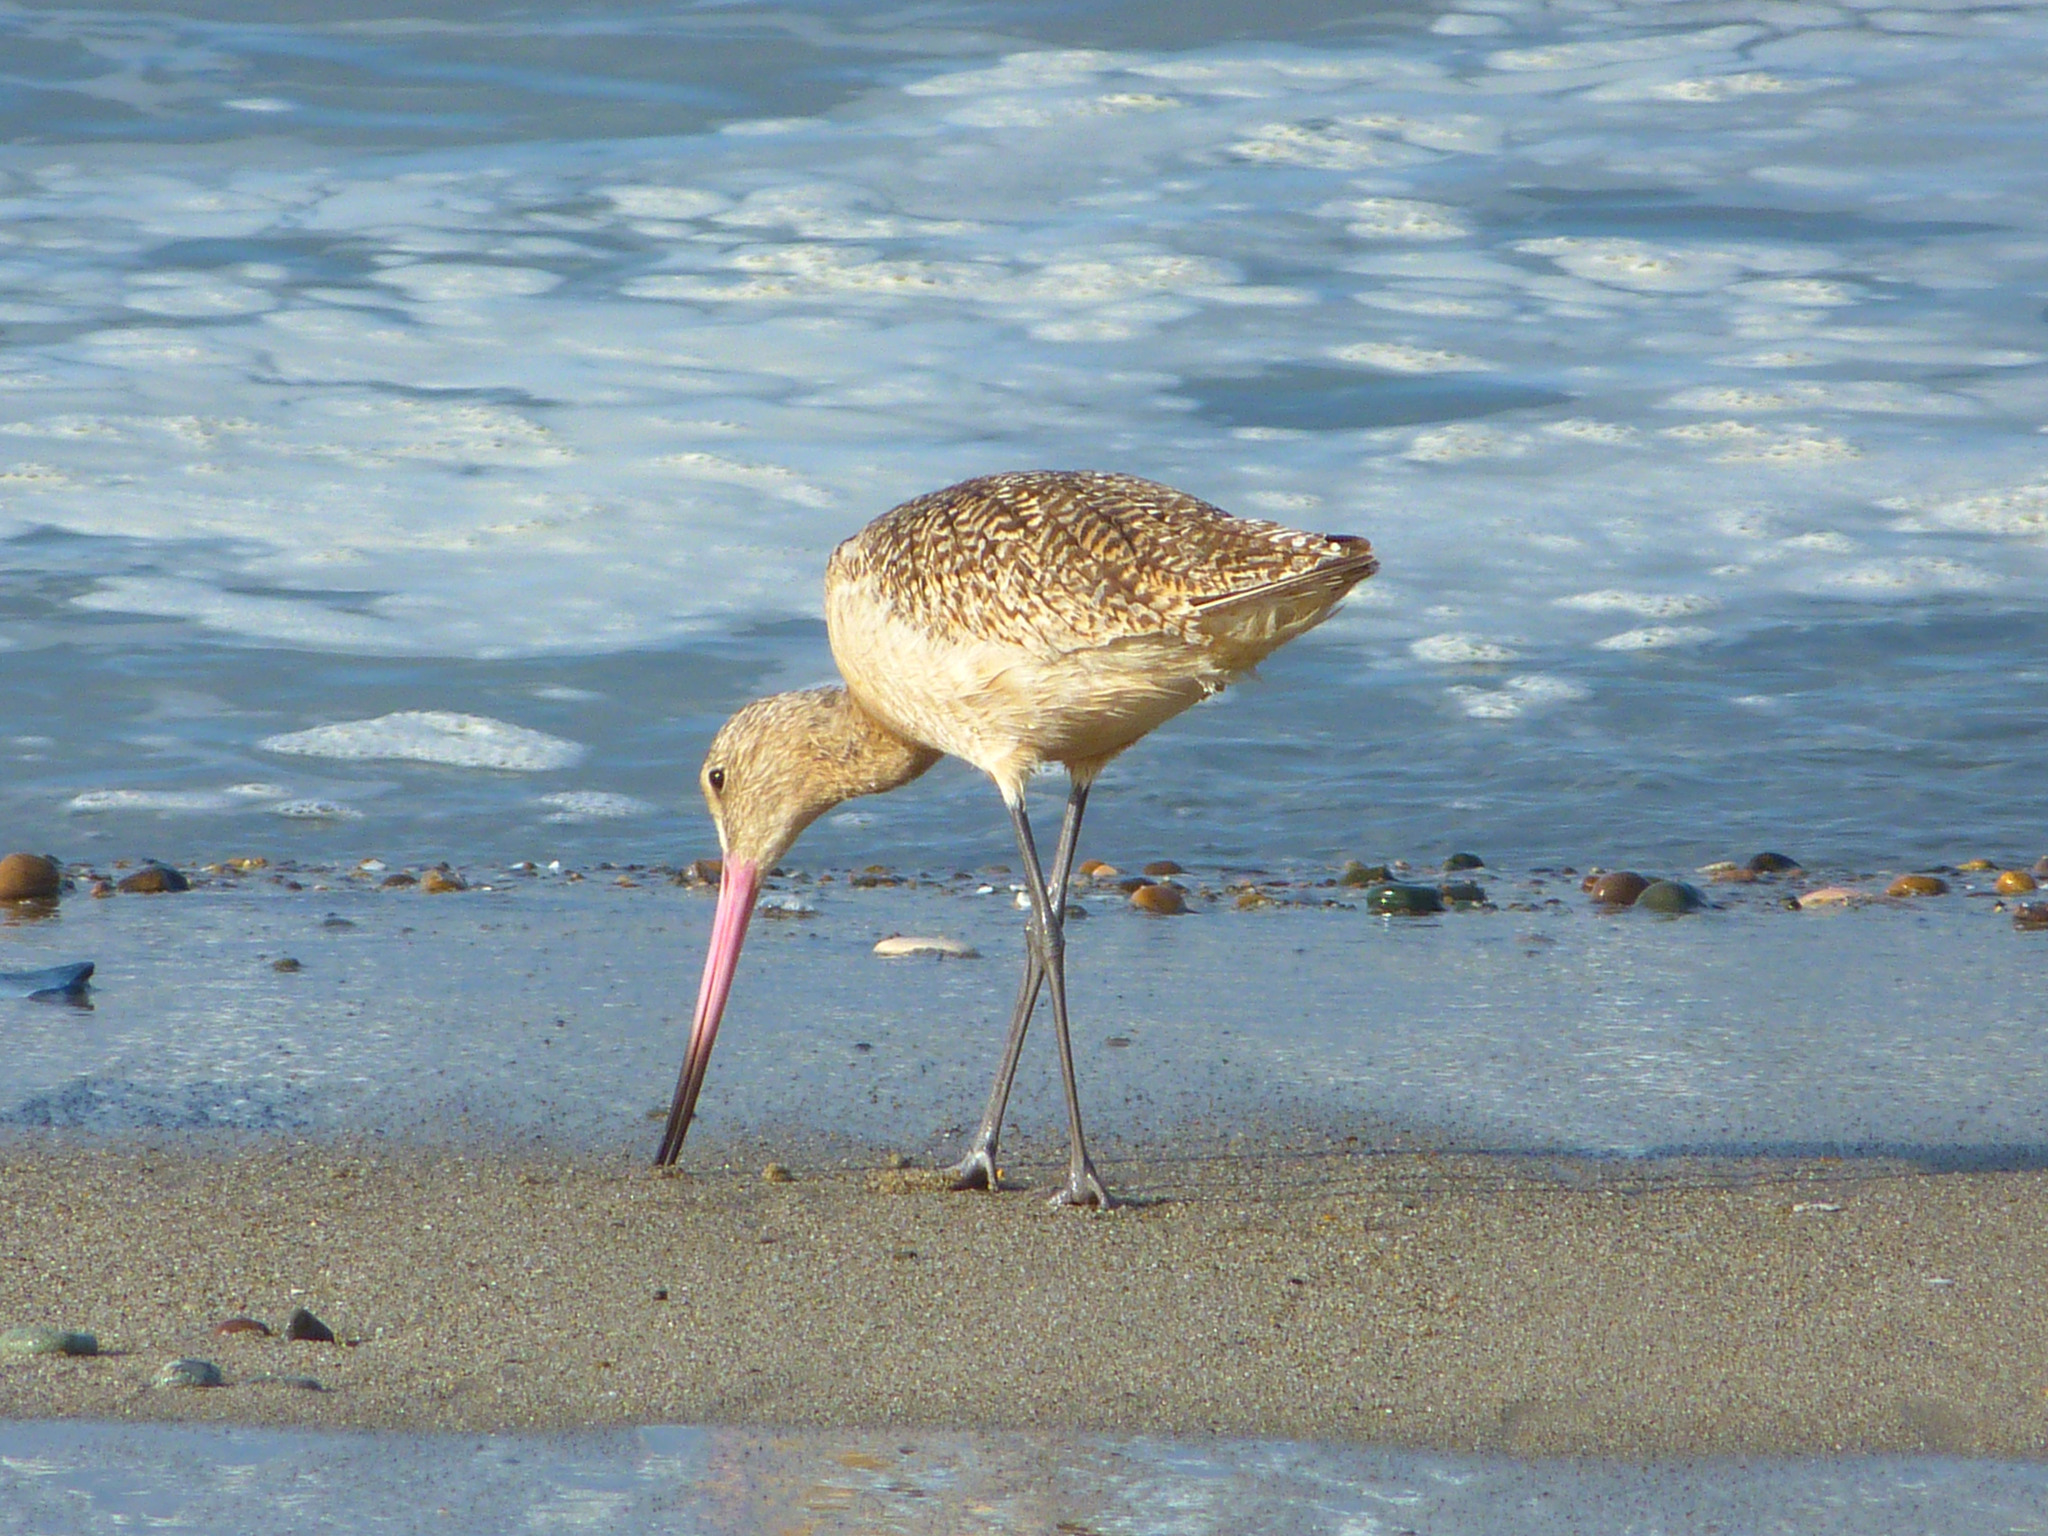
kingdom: Animalia
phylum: Chordata
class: Aves
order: Charadriiformes
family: Scolopacidae
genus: Limosa
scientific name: Limosa fedoa
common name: Marbled godwit
